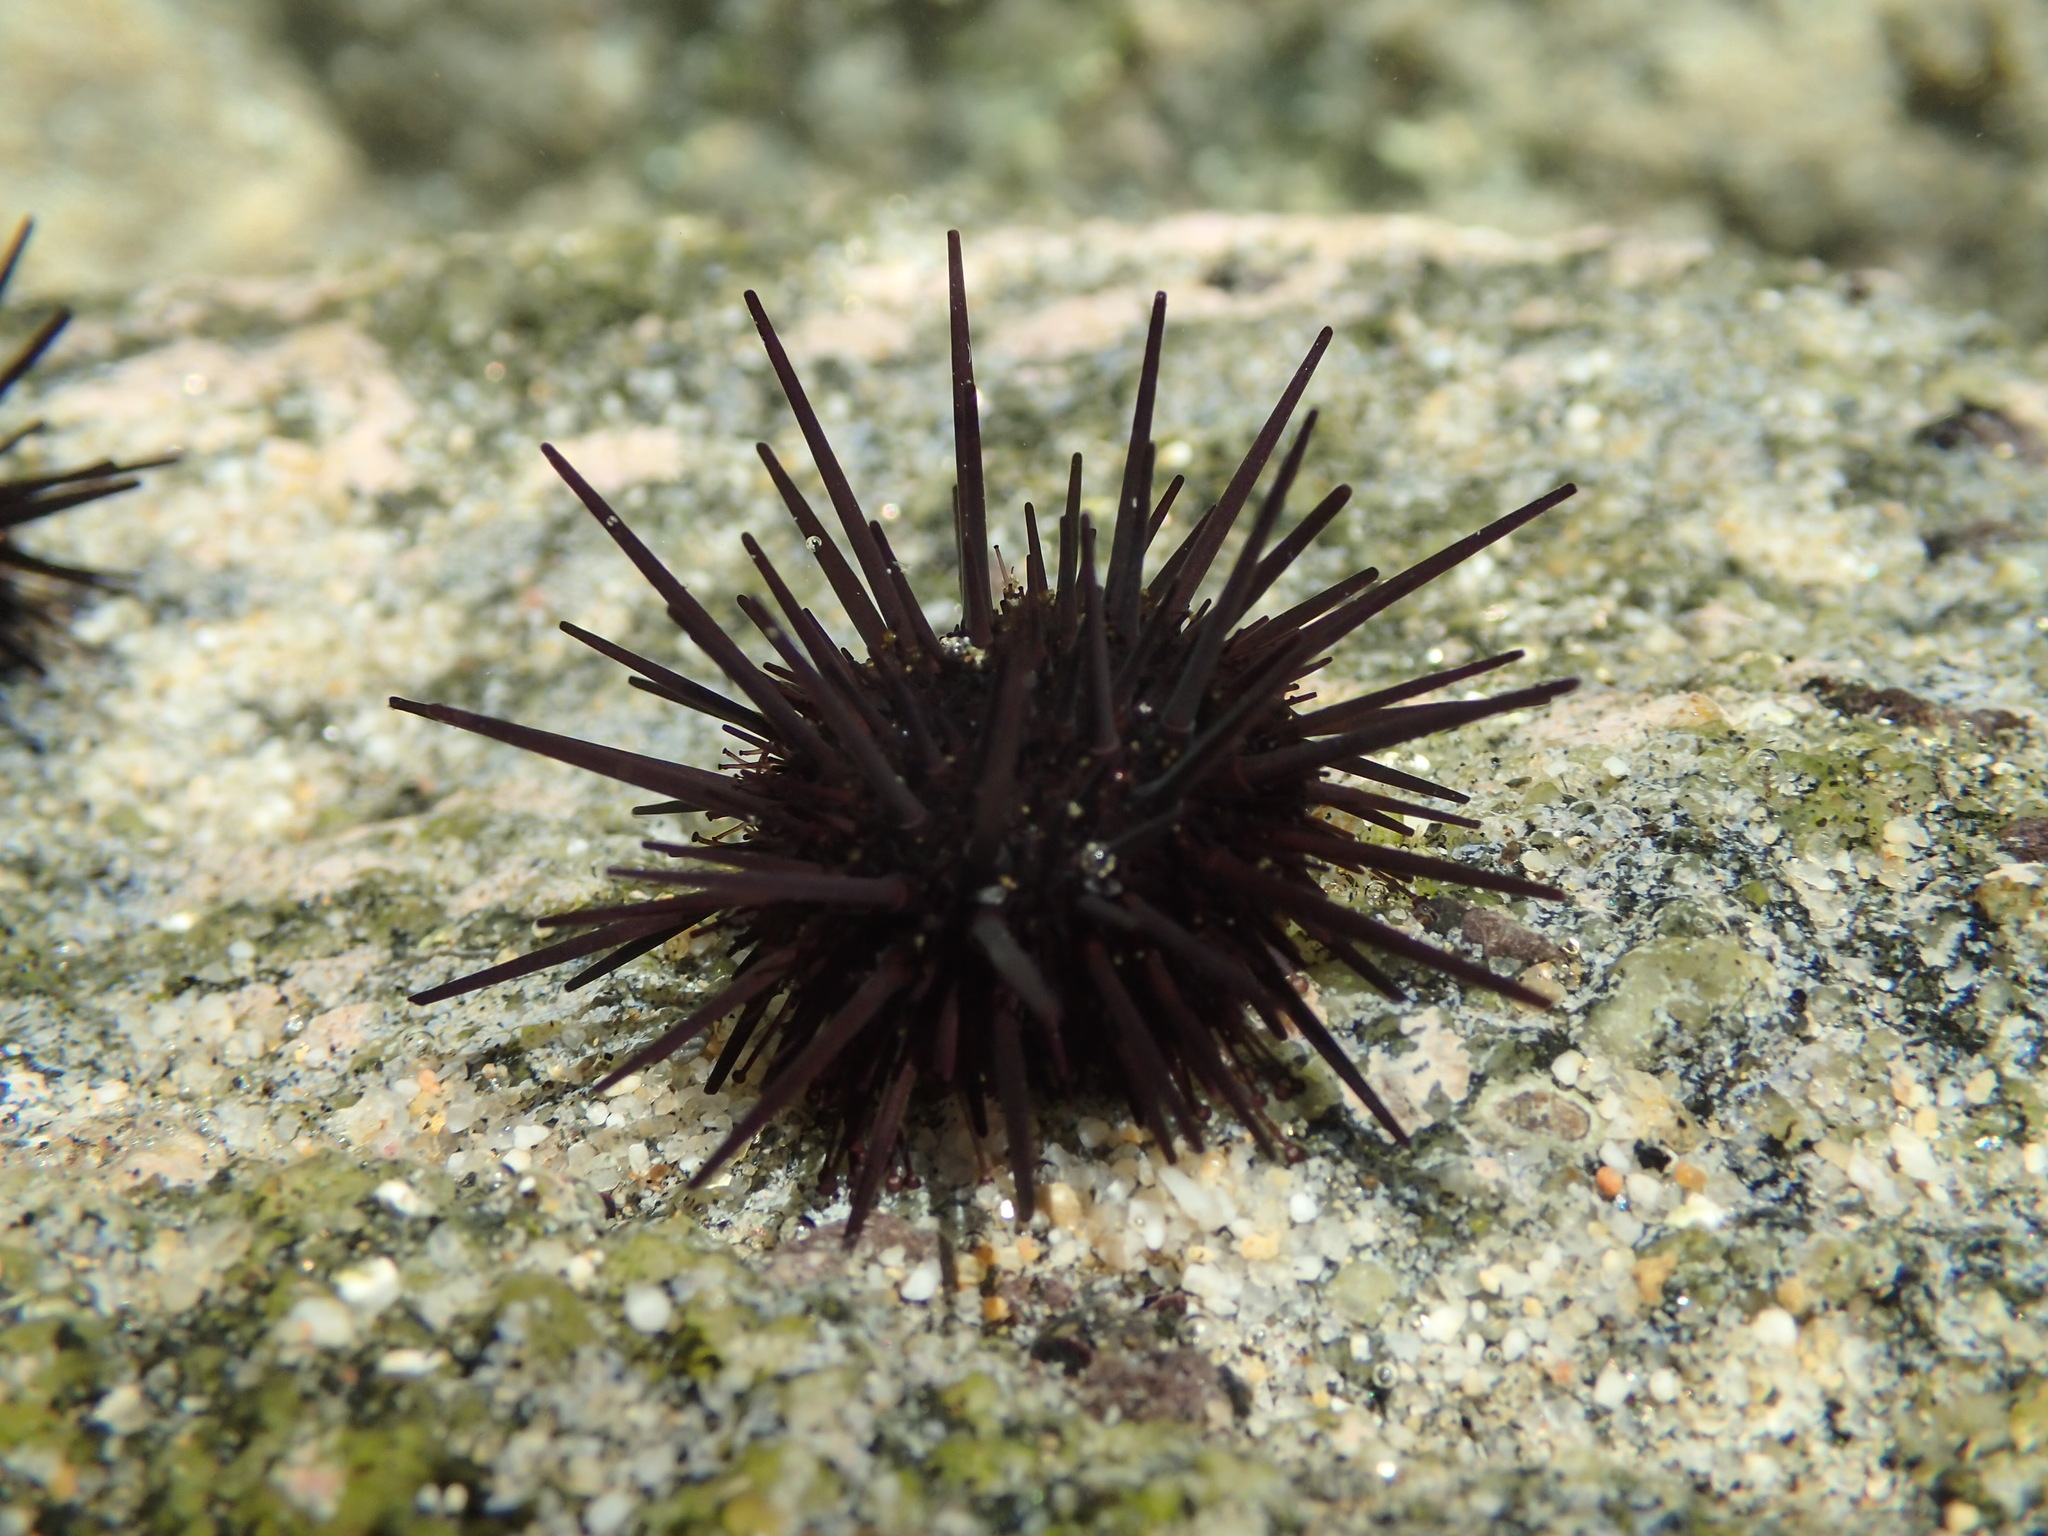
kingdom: Animalia
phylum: Echinodermata
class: Echinoidea
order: Camarodonta
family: Echinometridae
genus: Echinometra
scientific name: Echinometra vanbrunti
